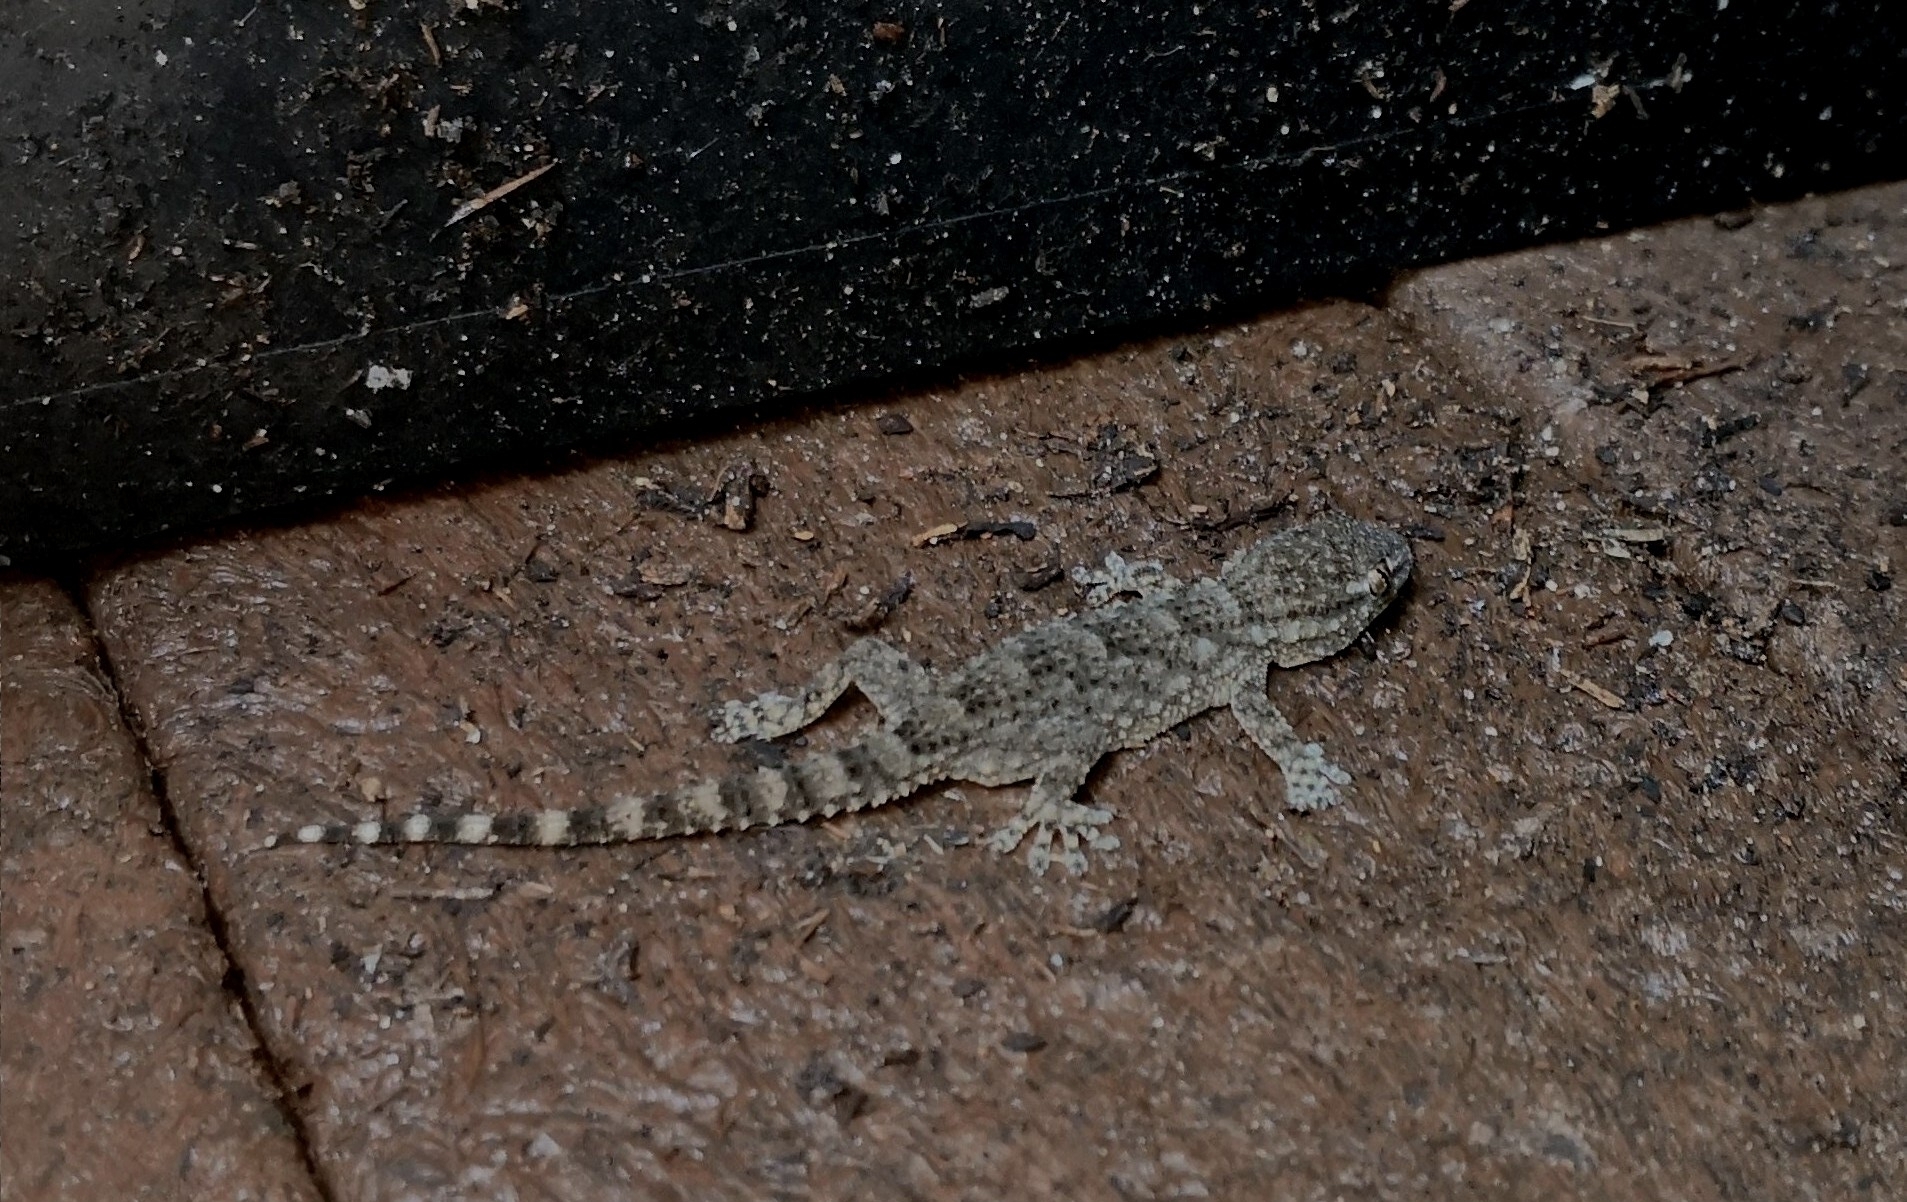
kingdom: Animalia
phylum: Chordata
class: Squamata
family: Phyllodactylidae
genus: Tarentola
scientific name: Tarentola mauritanica
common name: Moorish gecko
